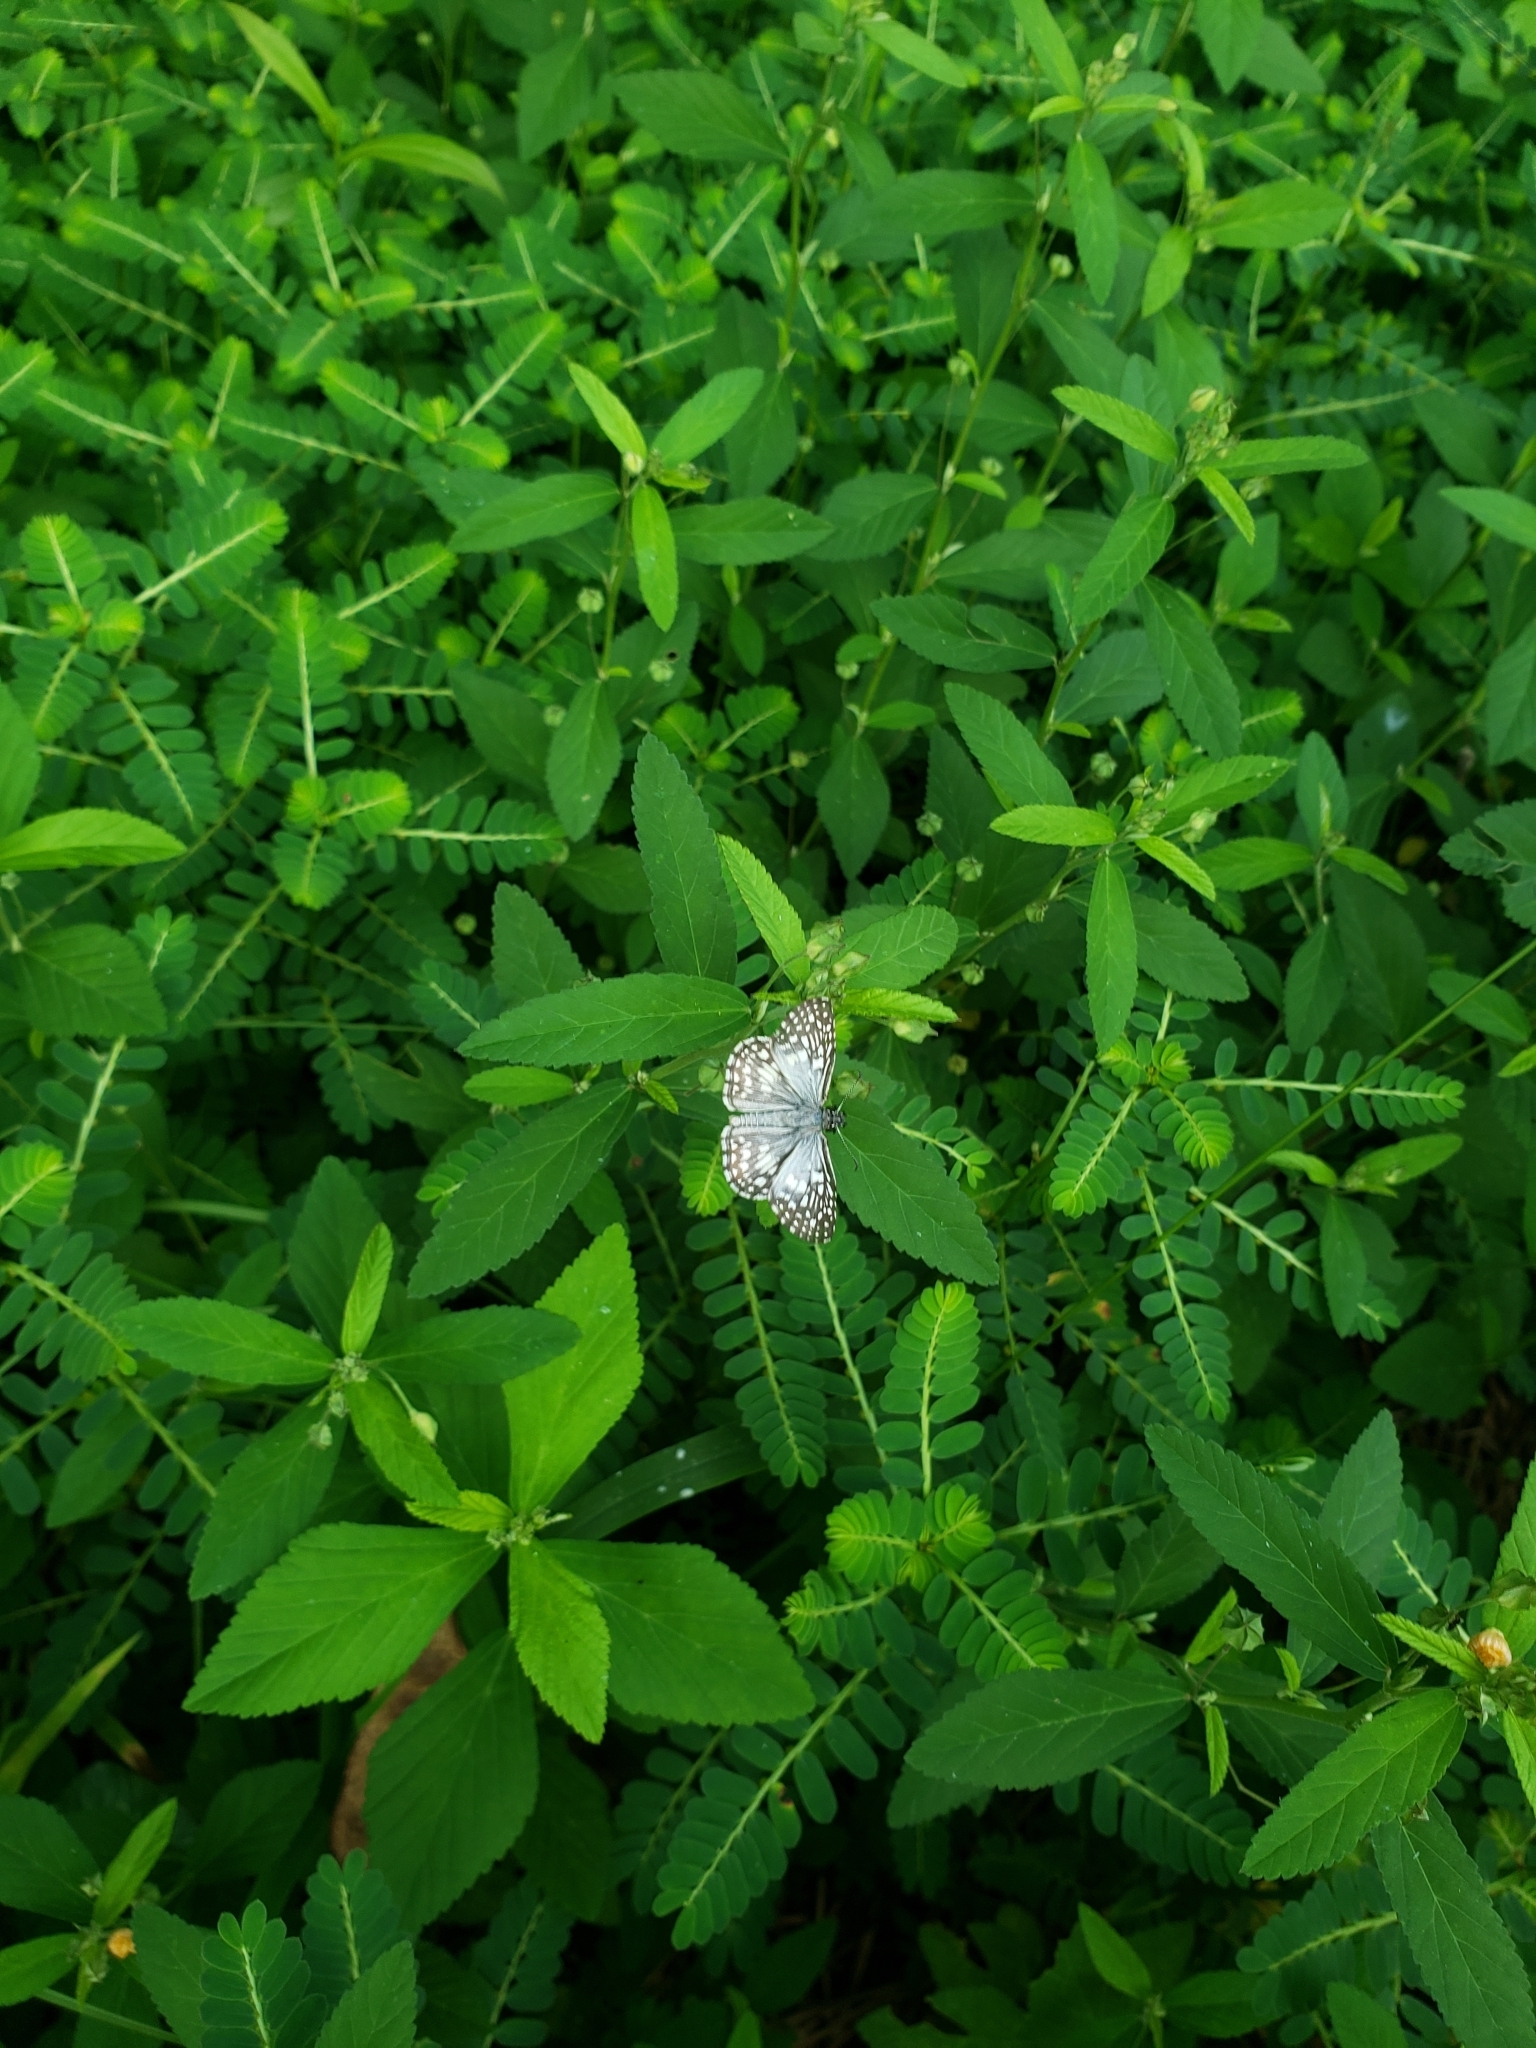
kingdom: Animalia
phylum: Arthropoda
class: Insecta
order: Lepidoptera
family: Hesperiidae
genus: Pyrgus
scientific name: Pyrgus oileus
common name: Tropical checkered-skipper
